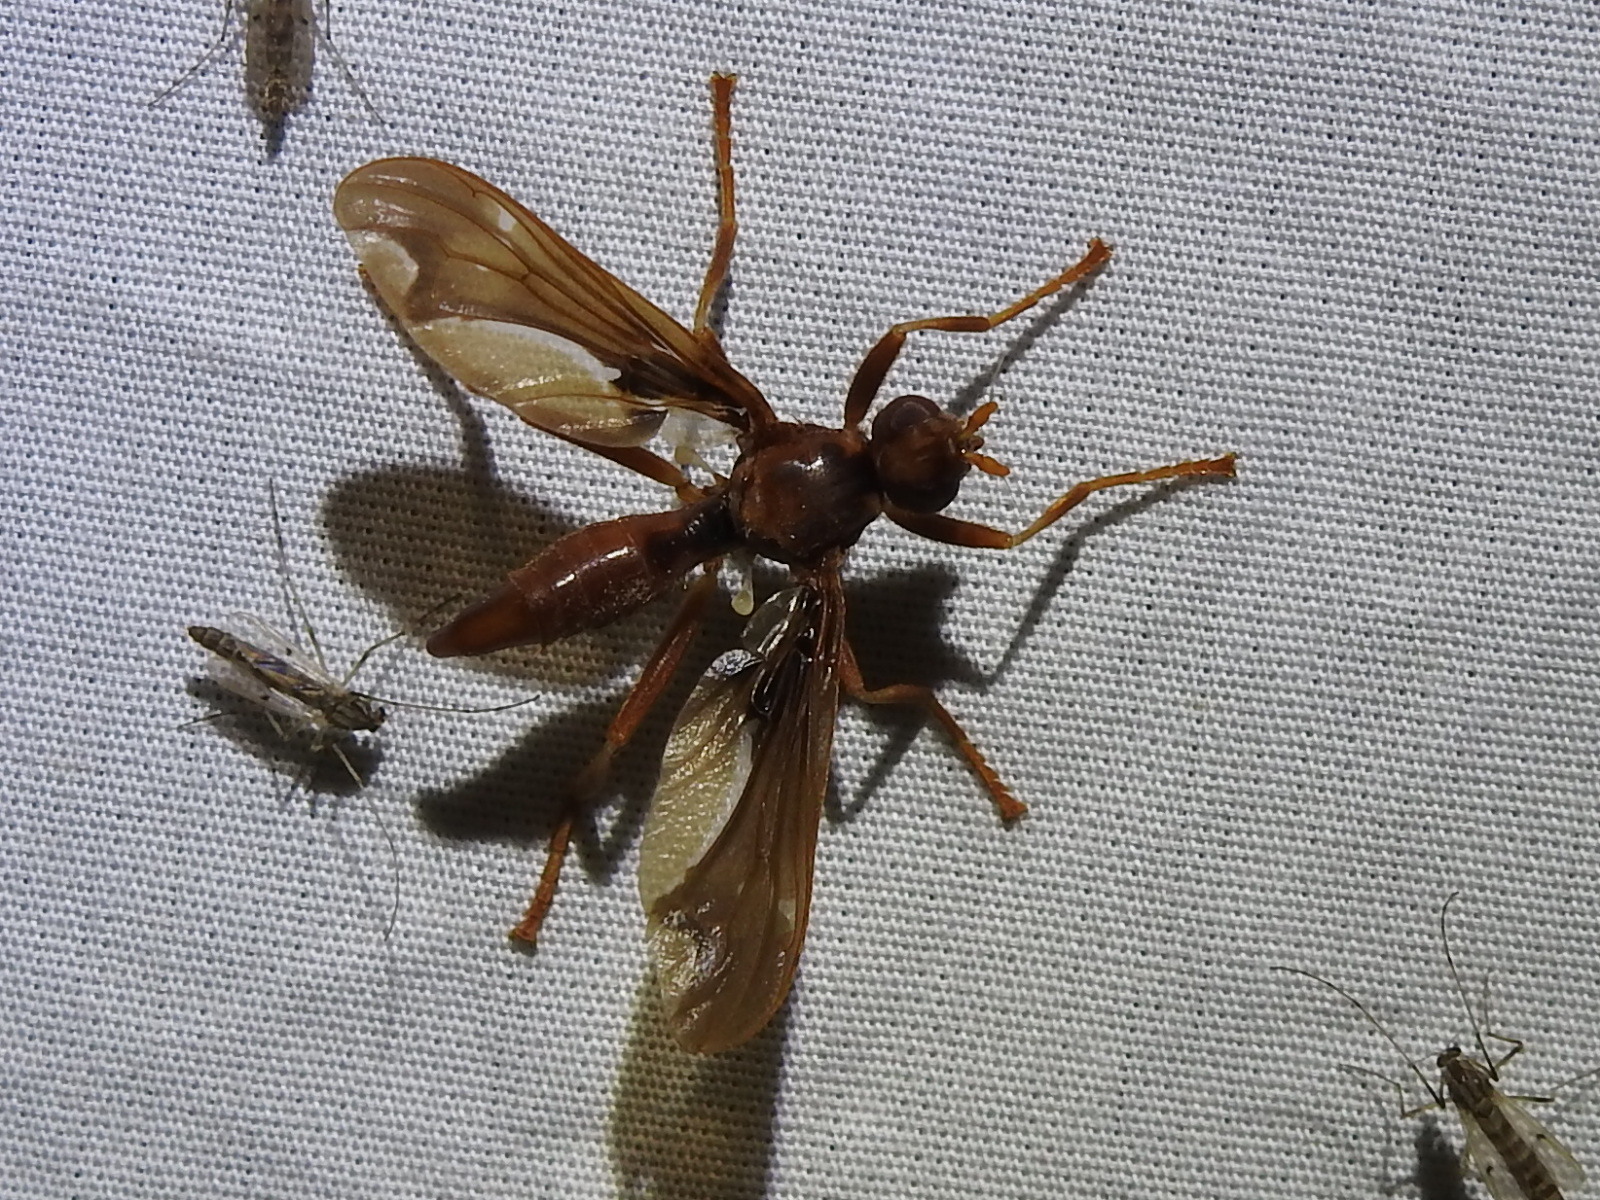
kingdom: Animalia
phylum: Arthropoda
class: Insecta
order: Diptera
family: Pyrgotidae
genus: Pyrgota
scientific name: Pyrgota undata
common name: Waved light fly
